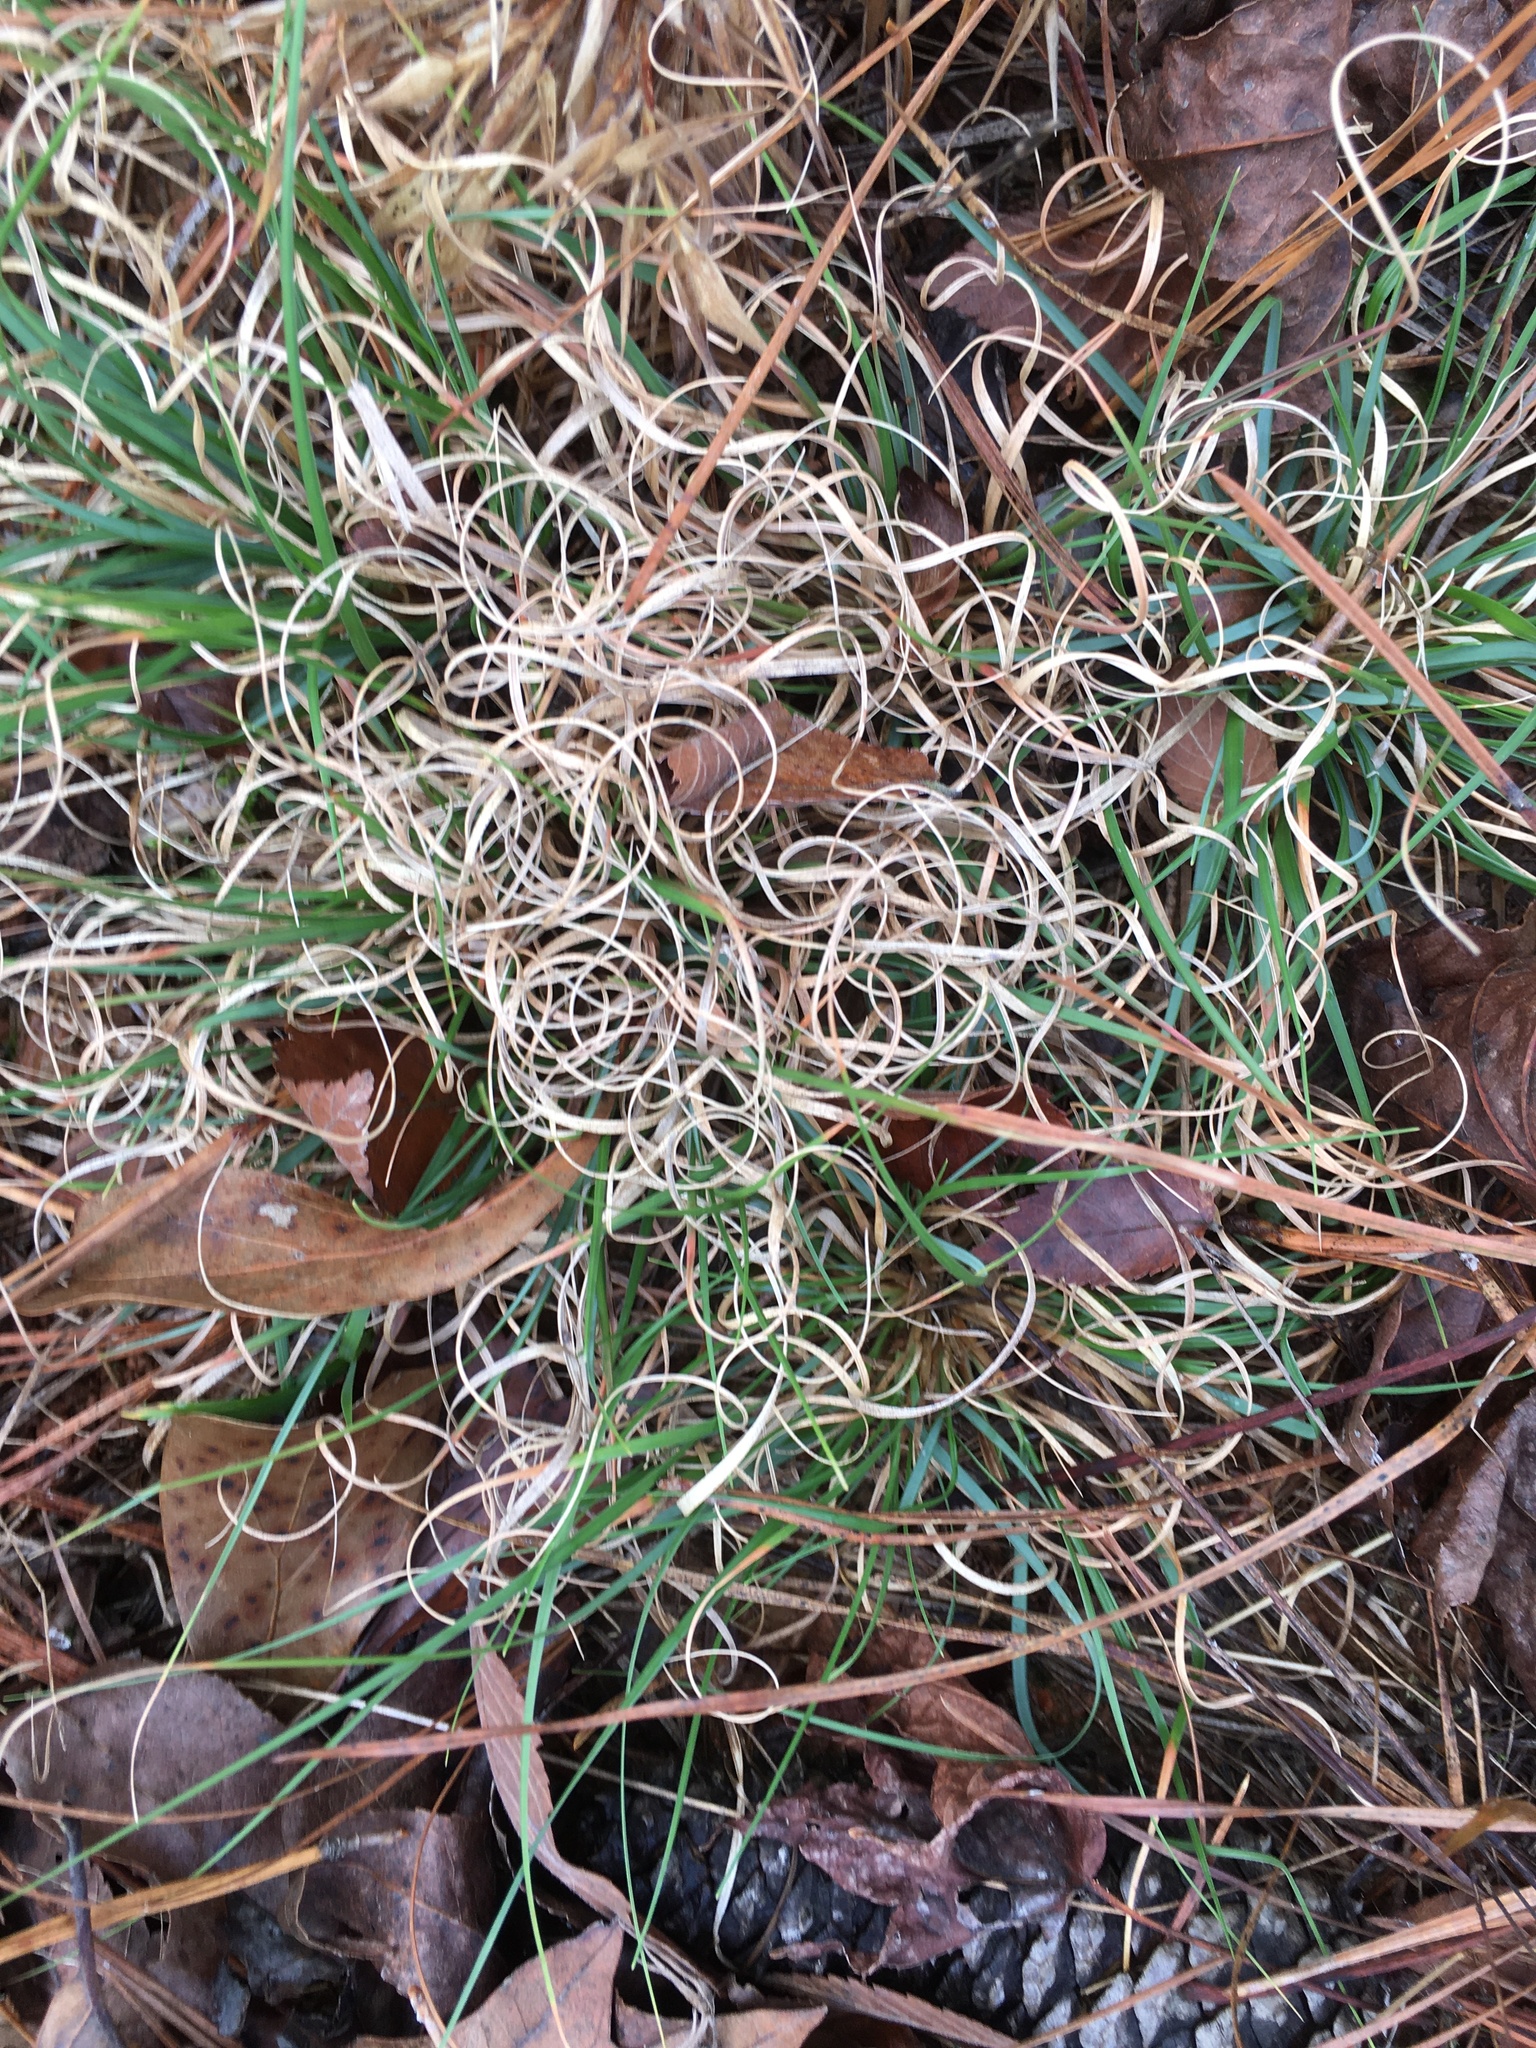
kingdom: Plantae
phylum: Tracheophyta
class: Liliopsida
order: Poales
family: Poaceae
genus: Danthonia
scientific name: Danthonia spicata
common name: Common wild oatgrass
